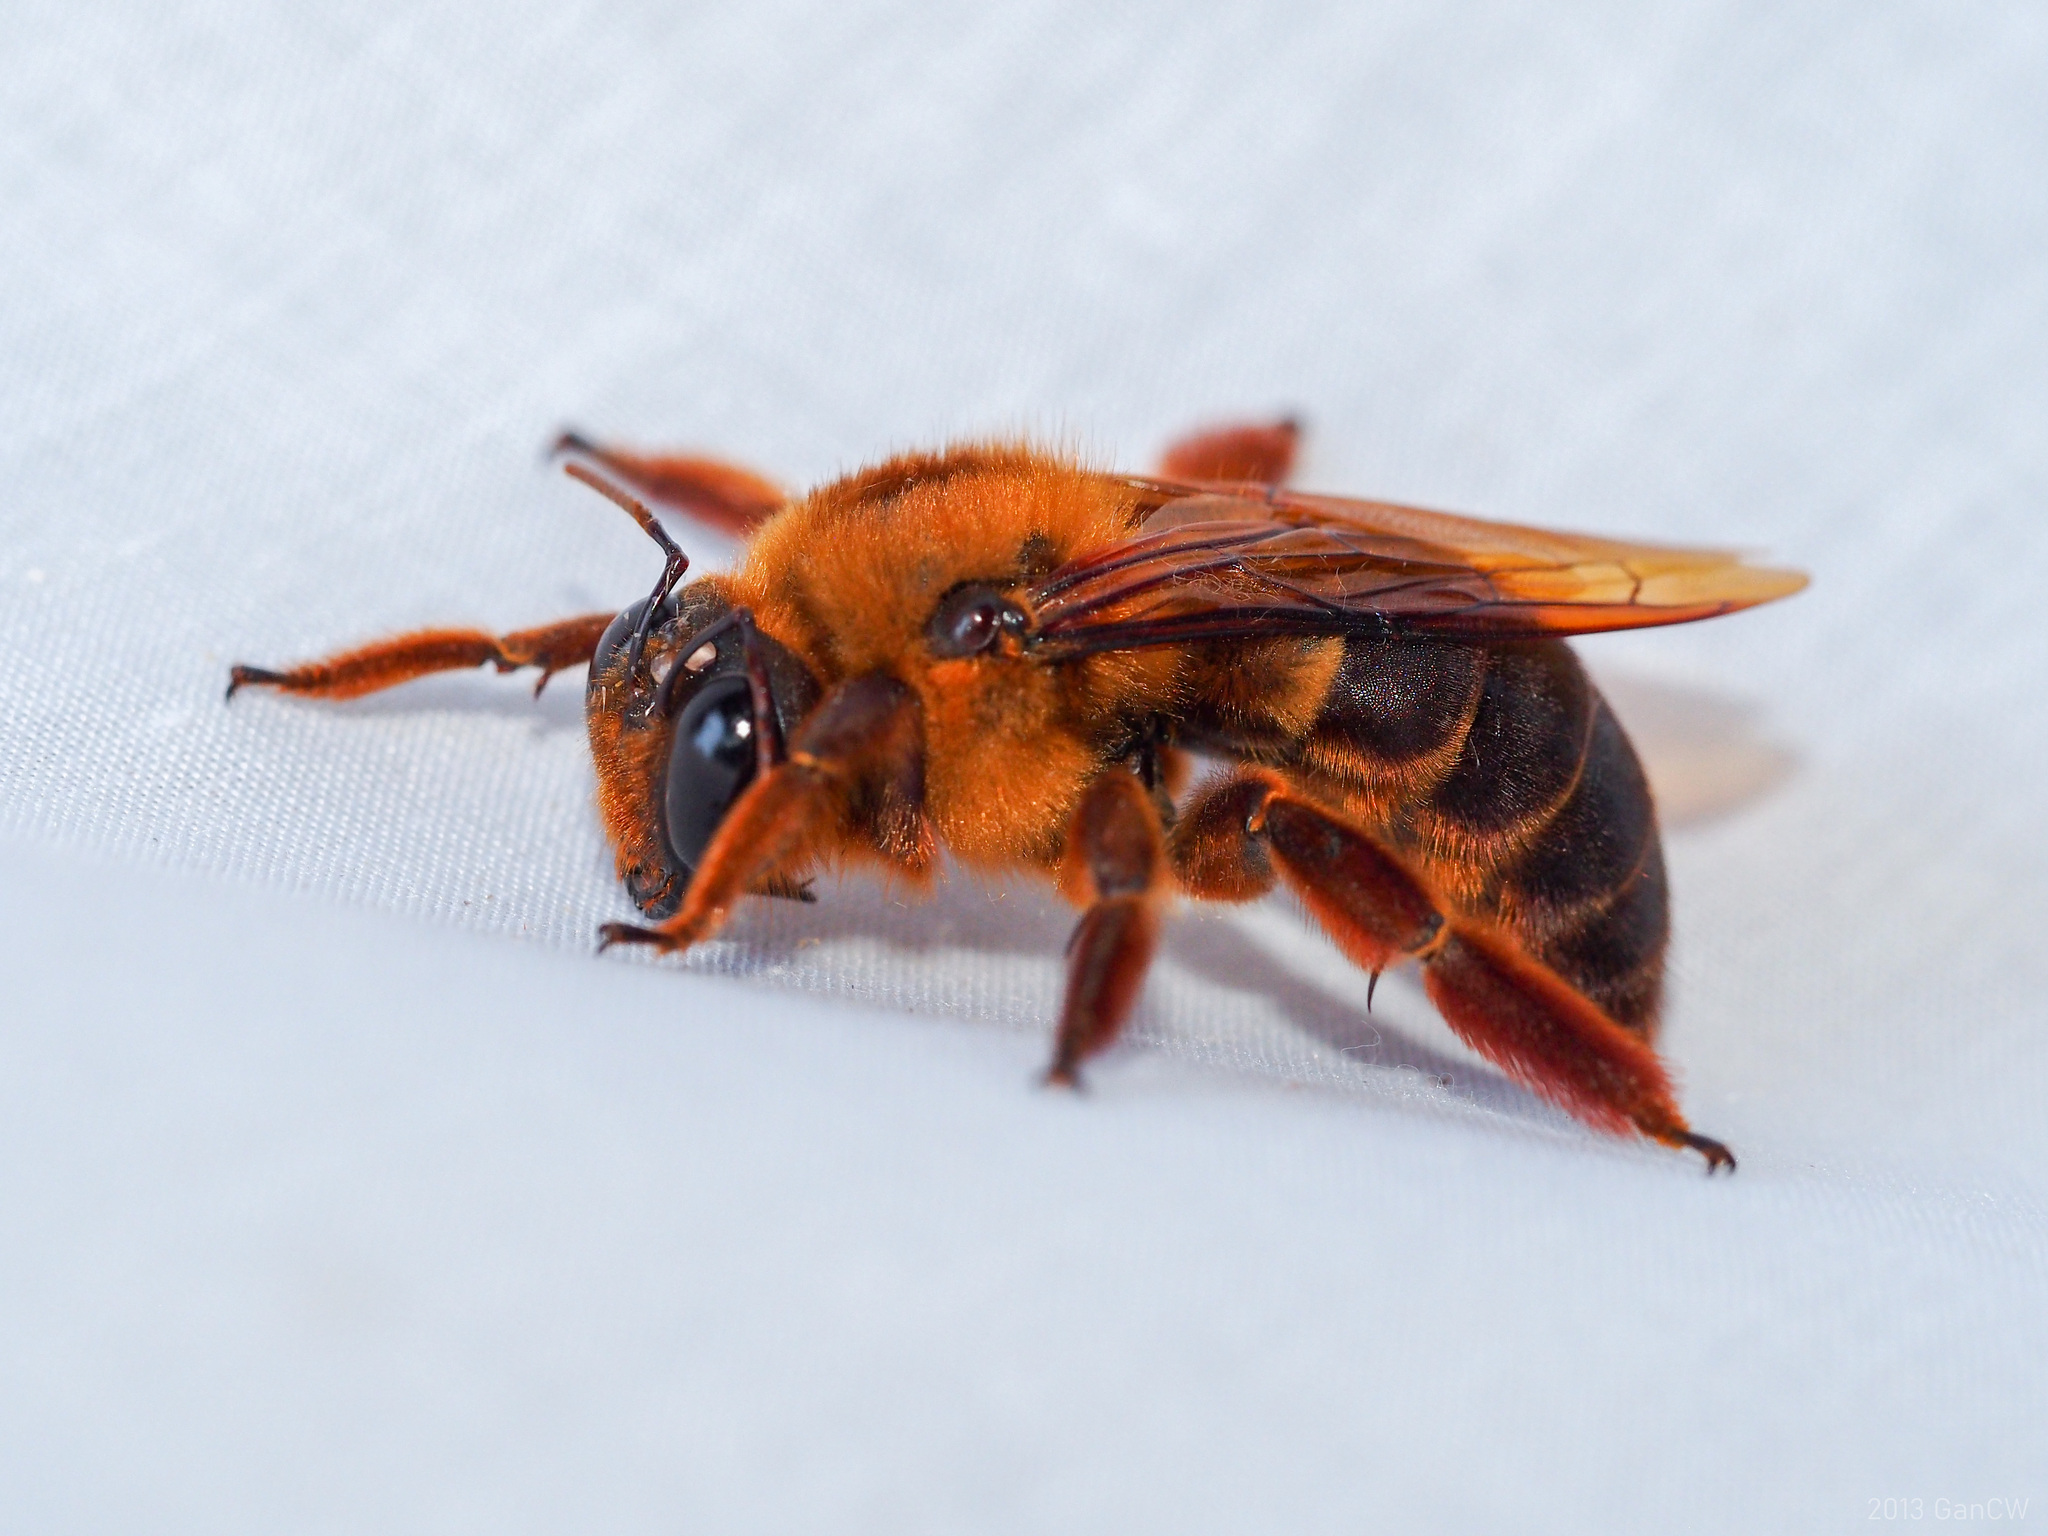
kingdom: Animalia
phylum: Arthropoda
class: Insecta
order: Hymenoptera
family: Apidae
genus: Xylocopa
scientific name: Xylocopa myops
